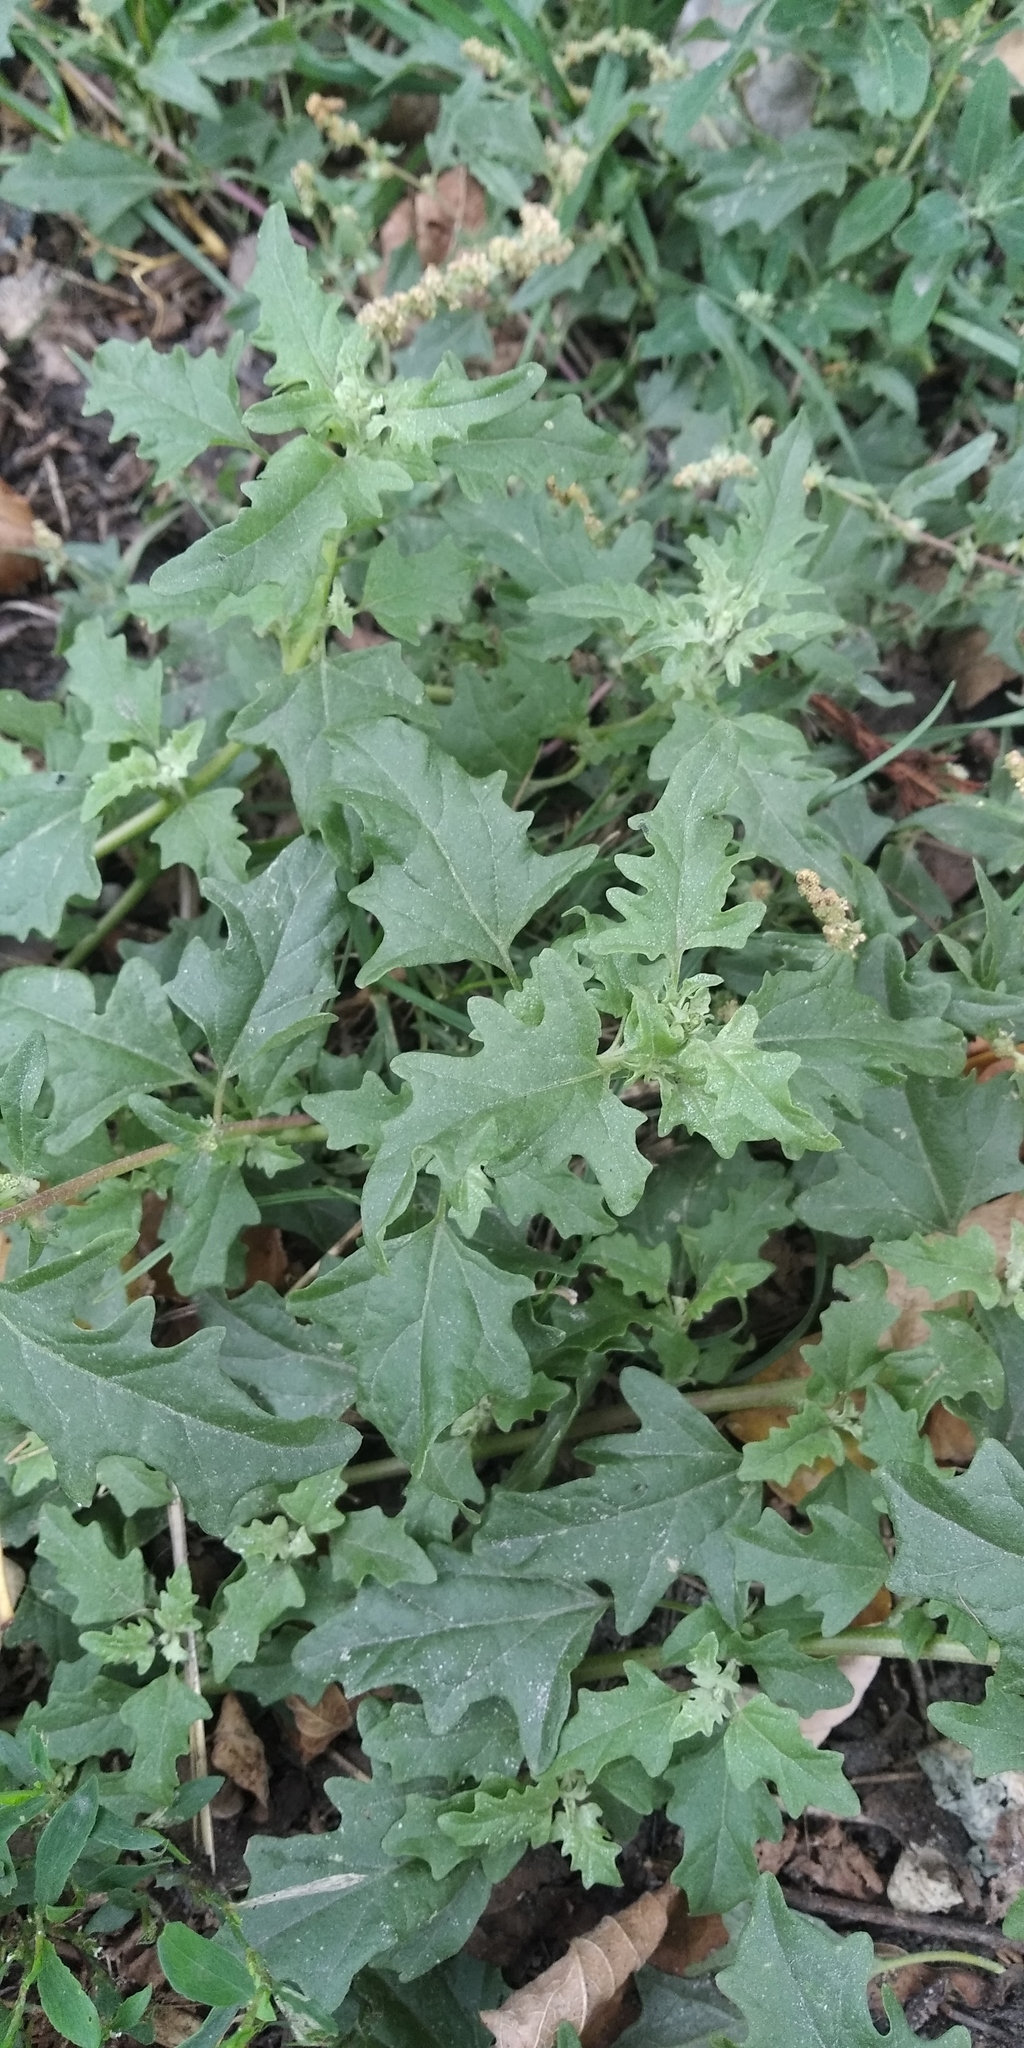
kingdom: Plantae
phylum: Tracheophyta
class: Magnoliopsida
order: Caryophyllales
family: Amaranthaceae
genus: Atriplex
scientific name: Atriplex tatarica
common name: Tatarian orache
